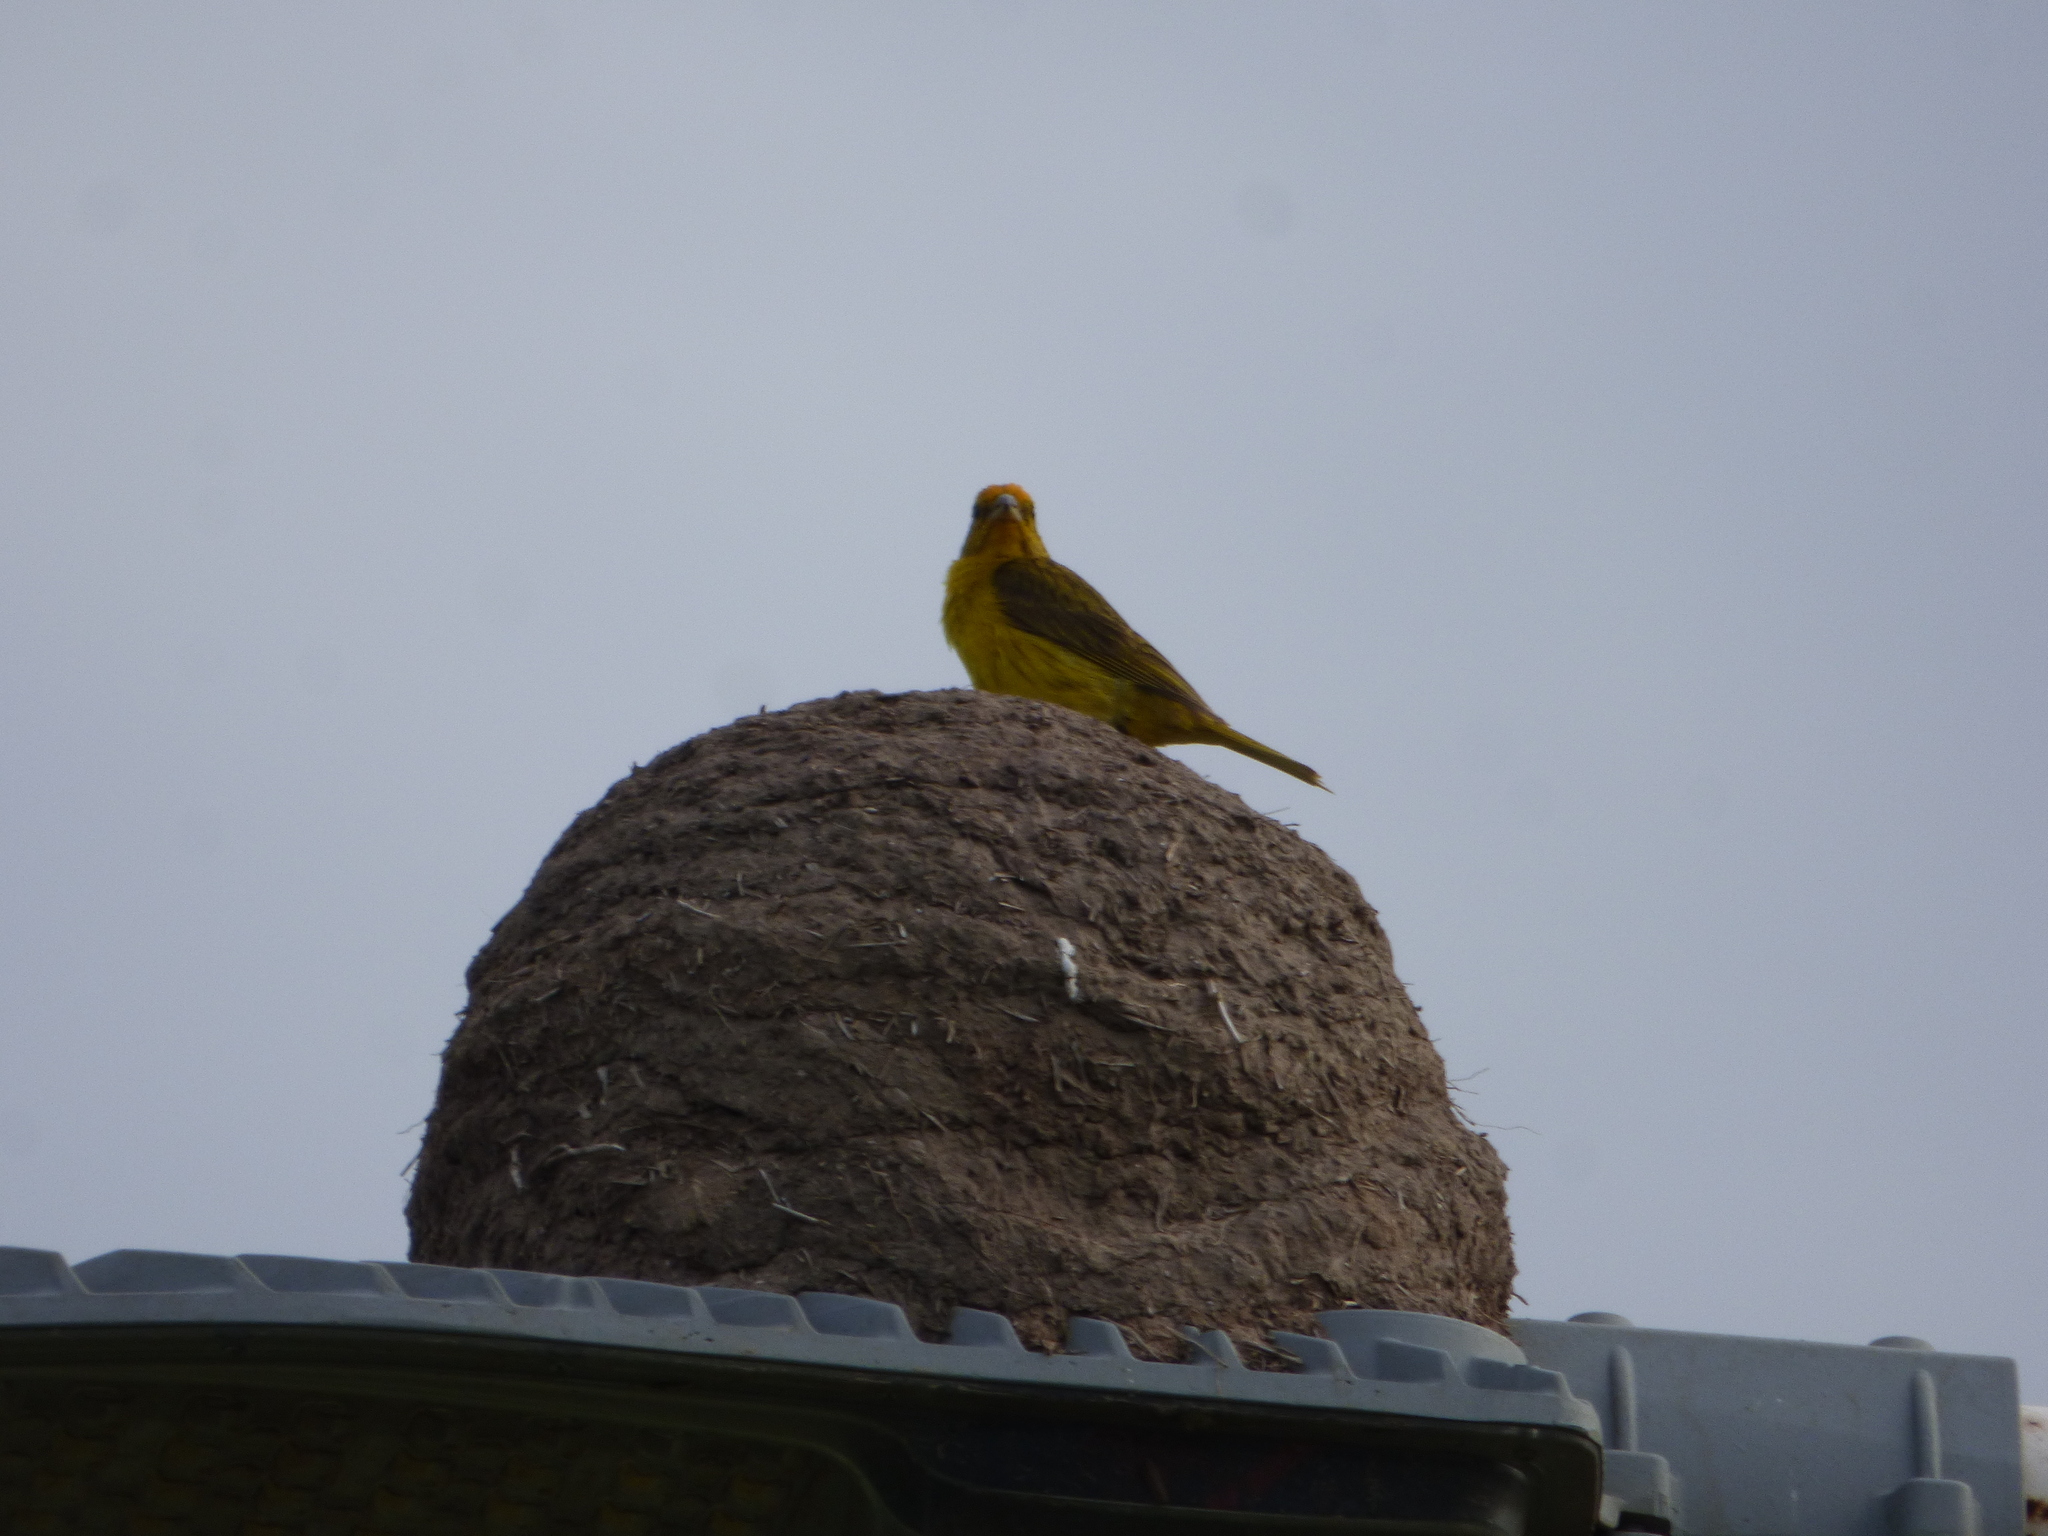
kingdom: Animalia
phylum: Chordata
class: Aves
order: Passeriformes
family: Thraupidae
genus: Sicalis
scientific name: Sicalis flaveola
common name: Saffron finch
